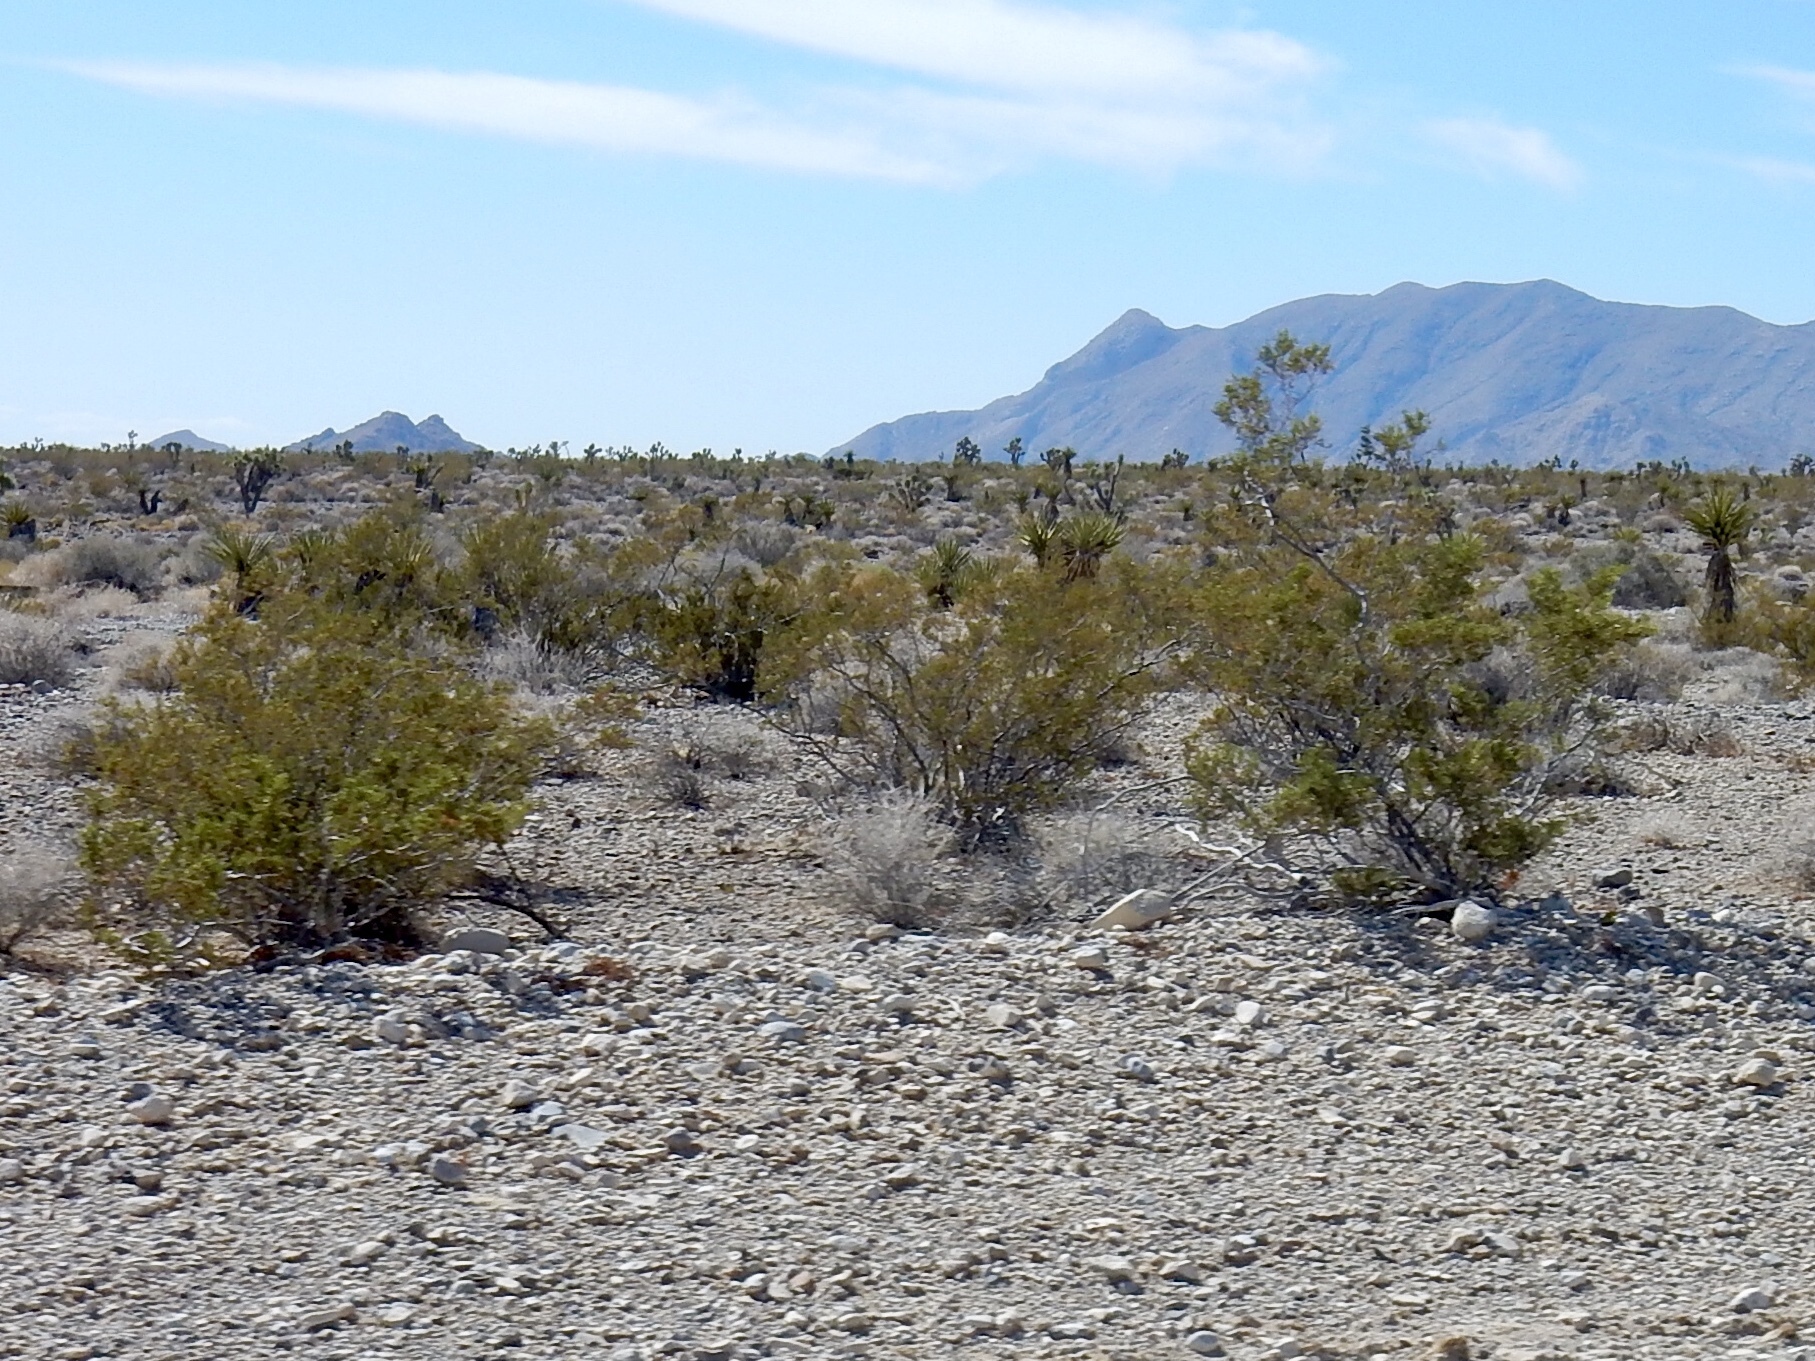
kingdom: Plantae
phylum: Tracheophyta
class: Magnoliopsida
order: Zygophyllales
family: Zygophyllaceae
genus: Larrea
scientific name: Larrea tridentata
